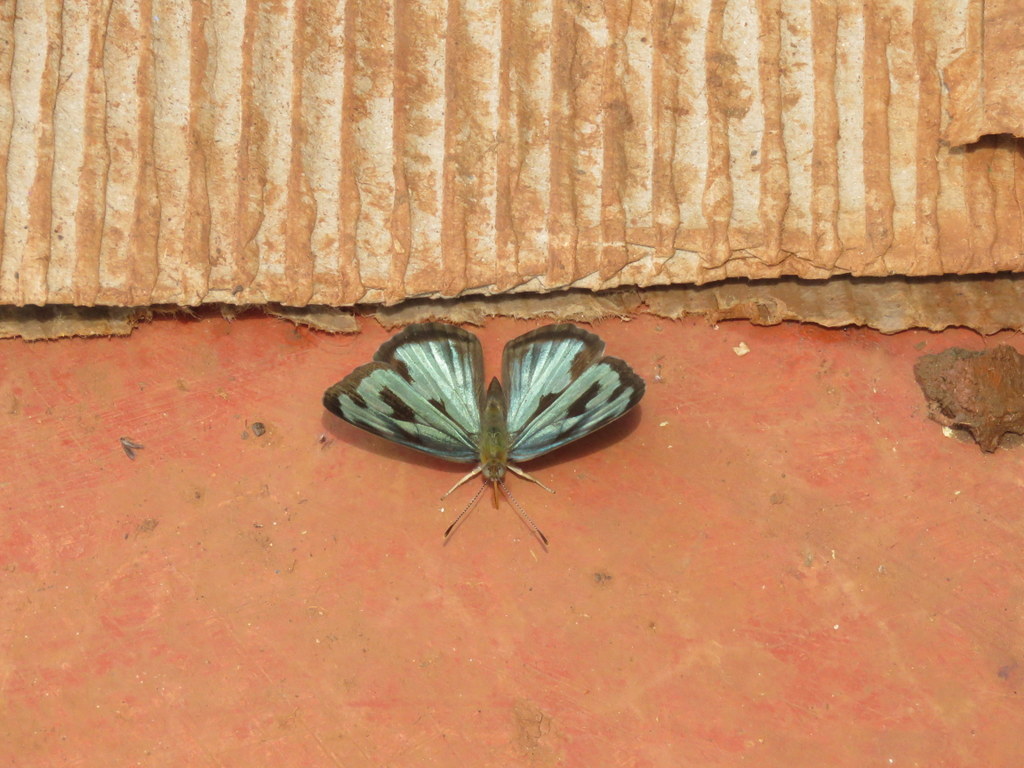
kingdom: Animalia
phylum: Arthropoda
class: Insecta
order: Lepidoptera
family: Nymphalidae
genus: Dynamine
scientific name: Dynamine mylitta
